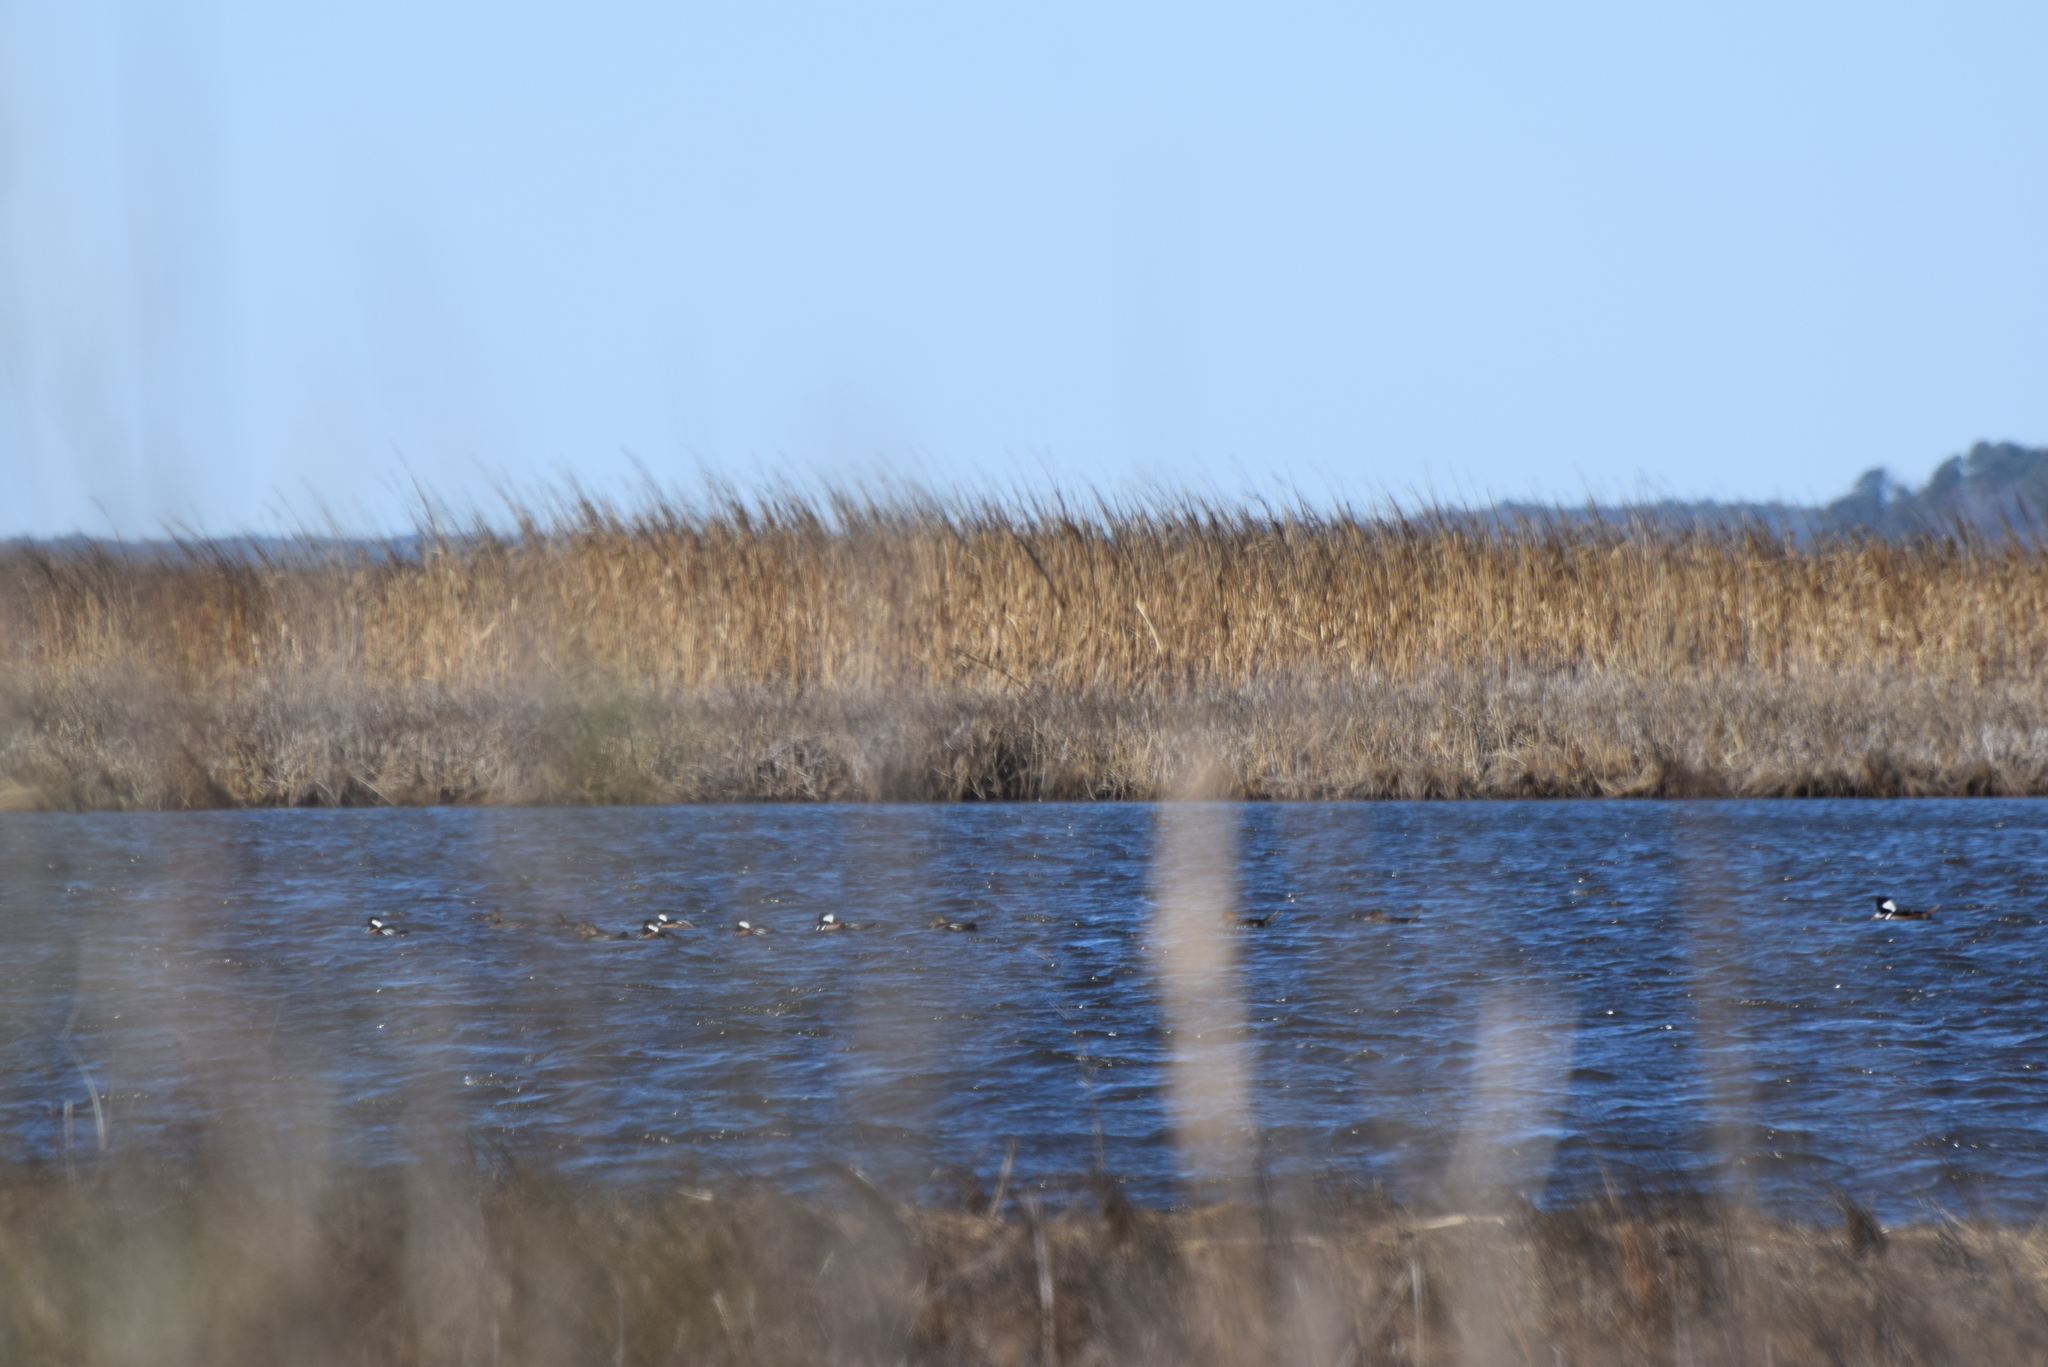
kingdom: Animalia
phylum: Chordata
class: Aves
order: Anseriformes
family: Anatidae
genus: Lophodytes
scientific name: Lophodytes cucullatus
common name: Hooded merganser
